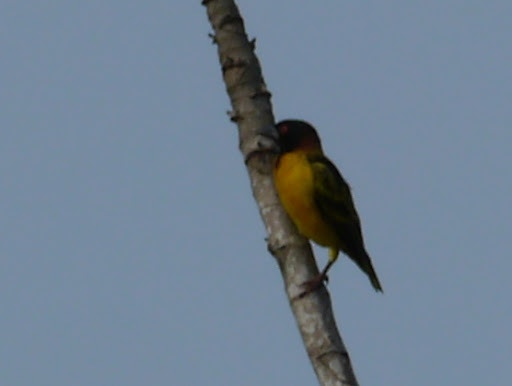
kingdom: Animalia
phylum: Chordata
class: Aves
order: Passeriformes
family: Ploceidae
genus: Ploceus
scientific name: Ploceus cucullatus
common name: Village weaver
